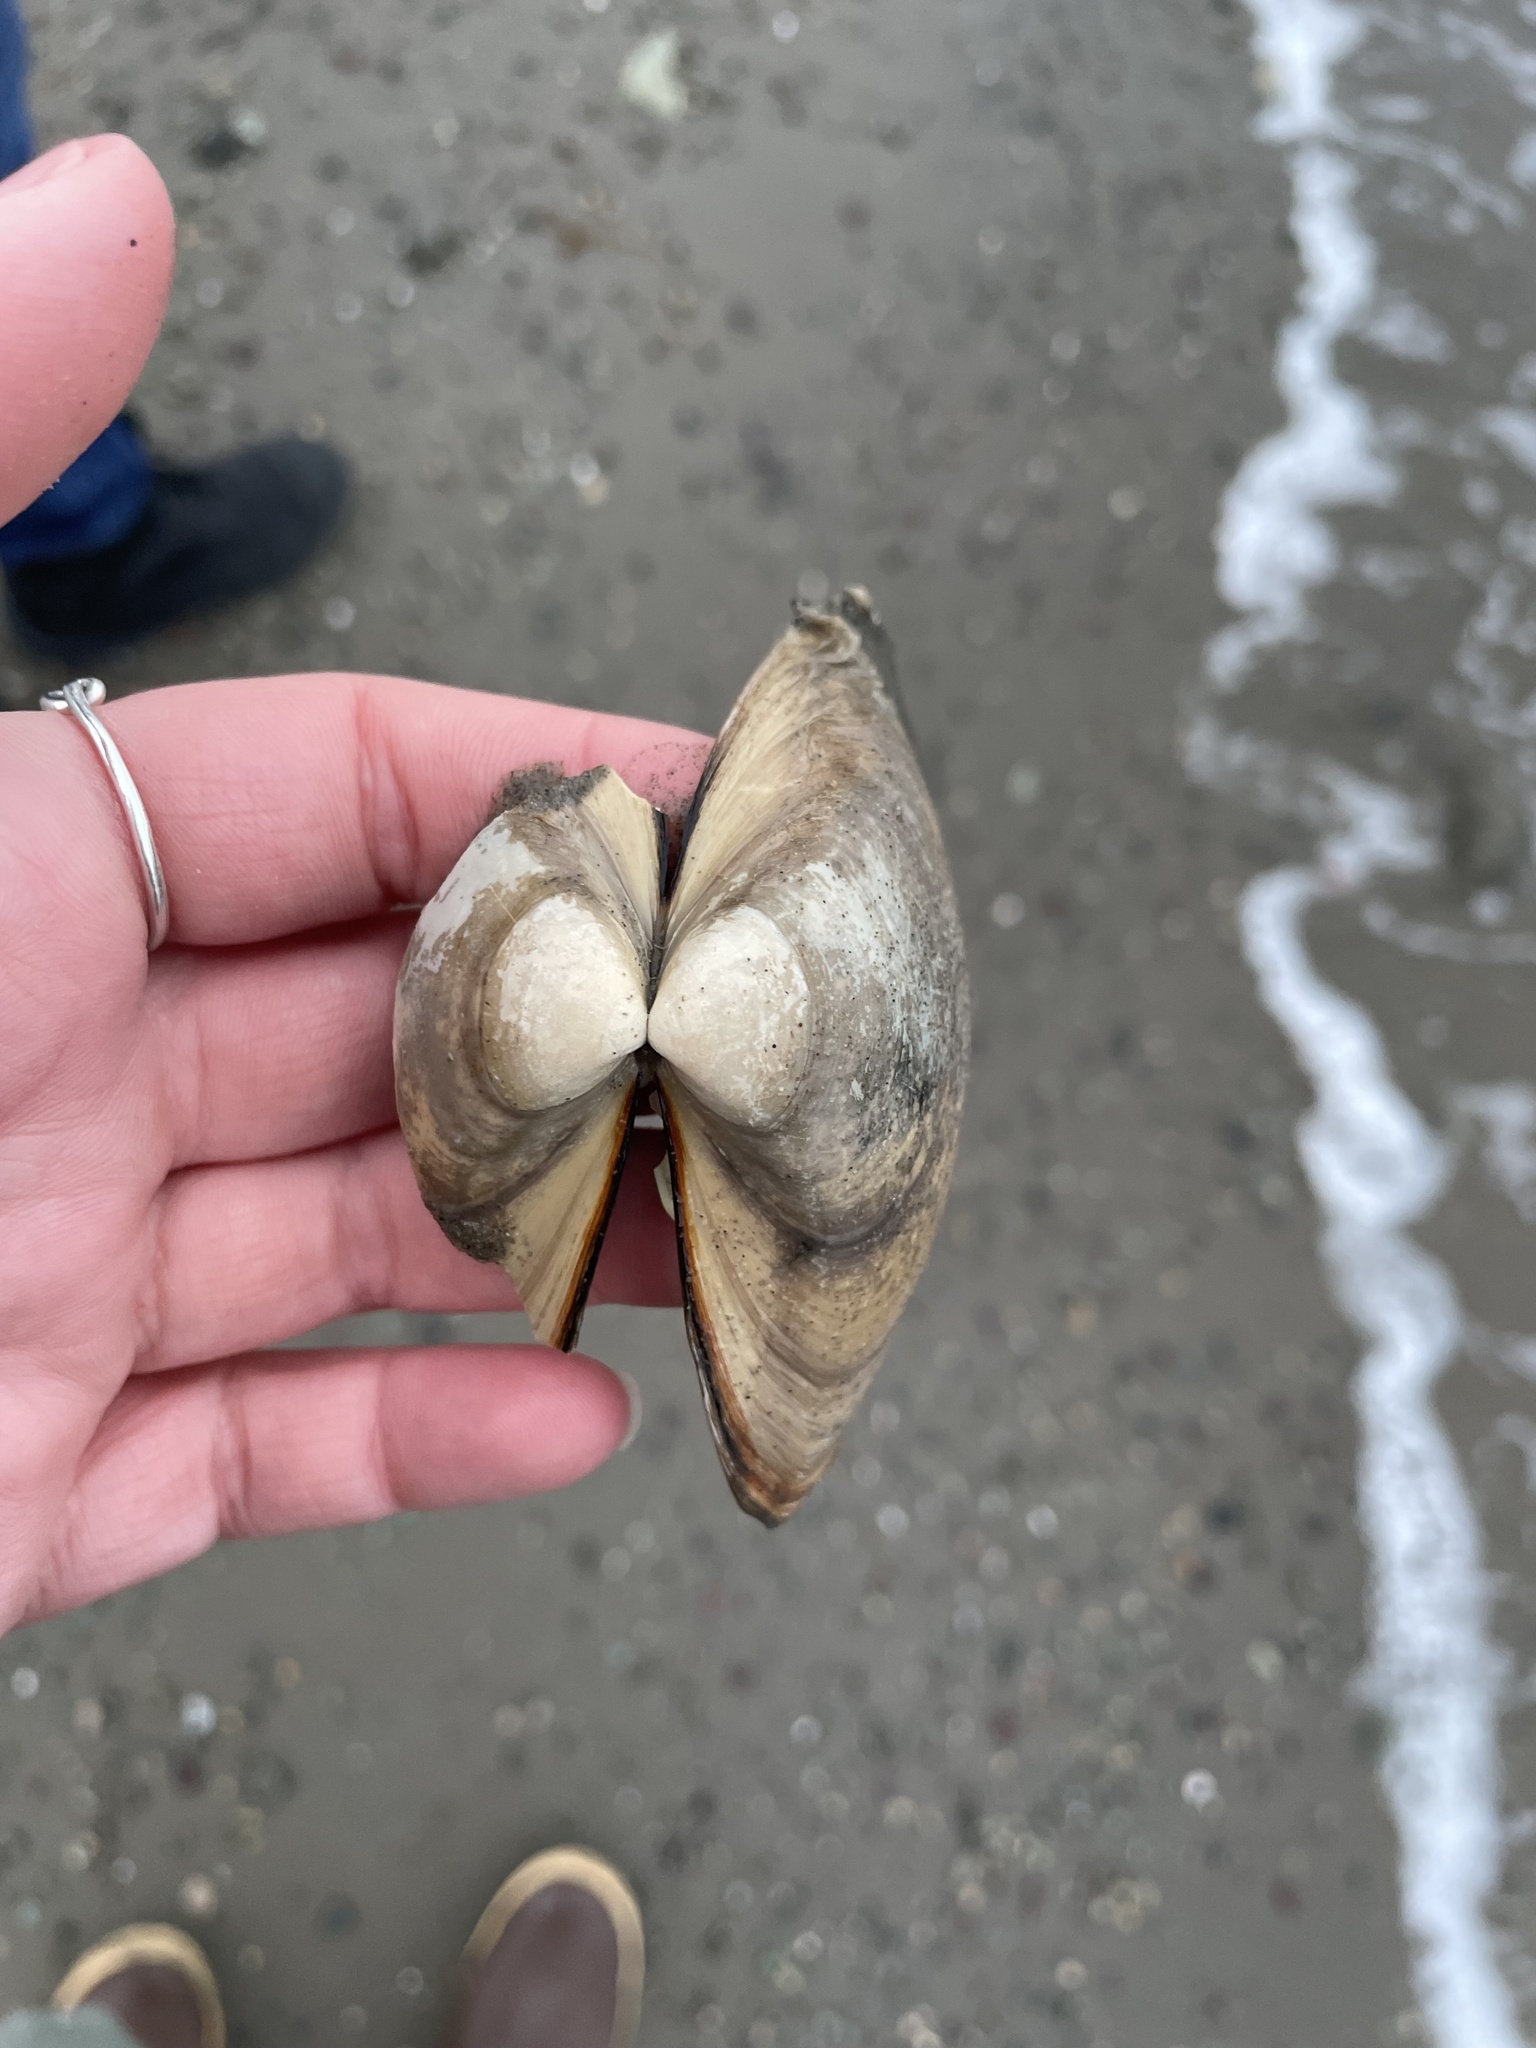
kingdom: Animalia
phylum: Mollusca
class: Bivalvia
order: Venerida
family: Mactridae
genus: Spisula
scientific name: Spisula solidissima
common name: Atlantic surf clam
